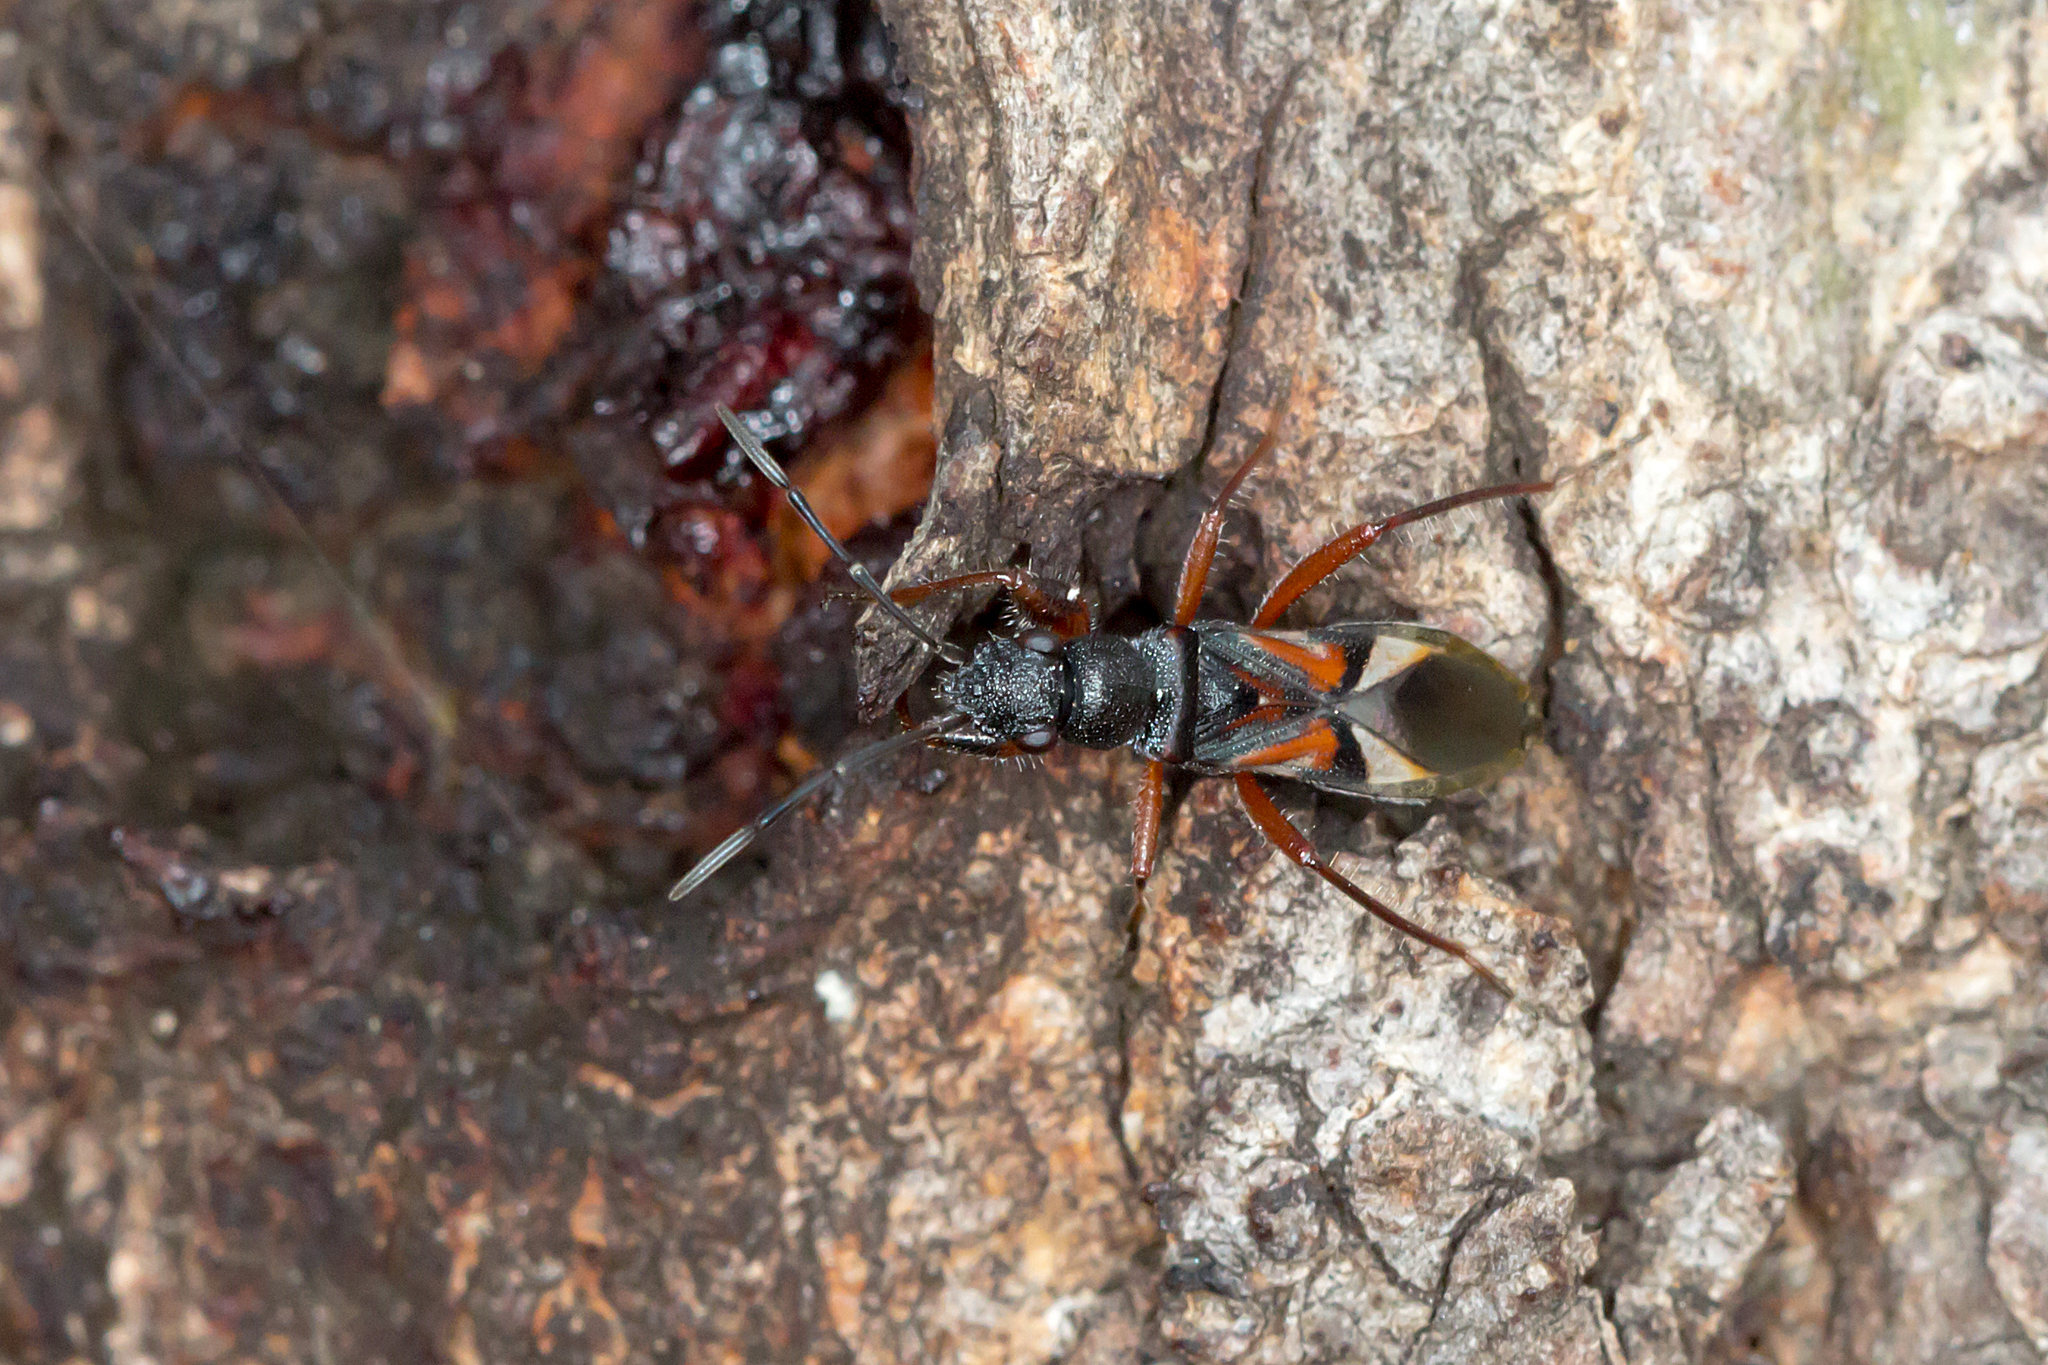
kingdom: Animalia
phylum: Arthropoda
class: Insecta
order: Hemiptera
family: Rhyparochromidae
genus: Daerlac
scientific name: Daerlac cephalotes
